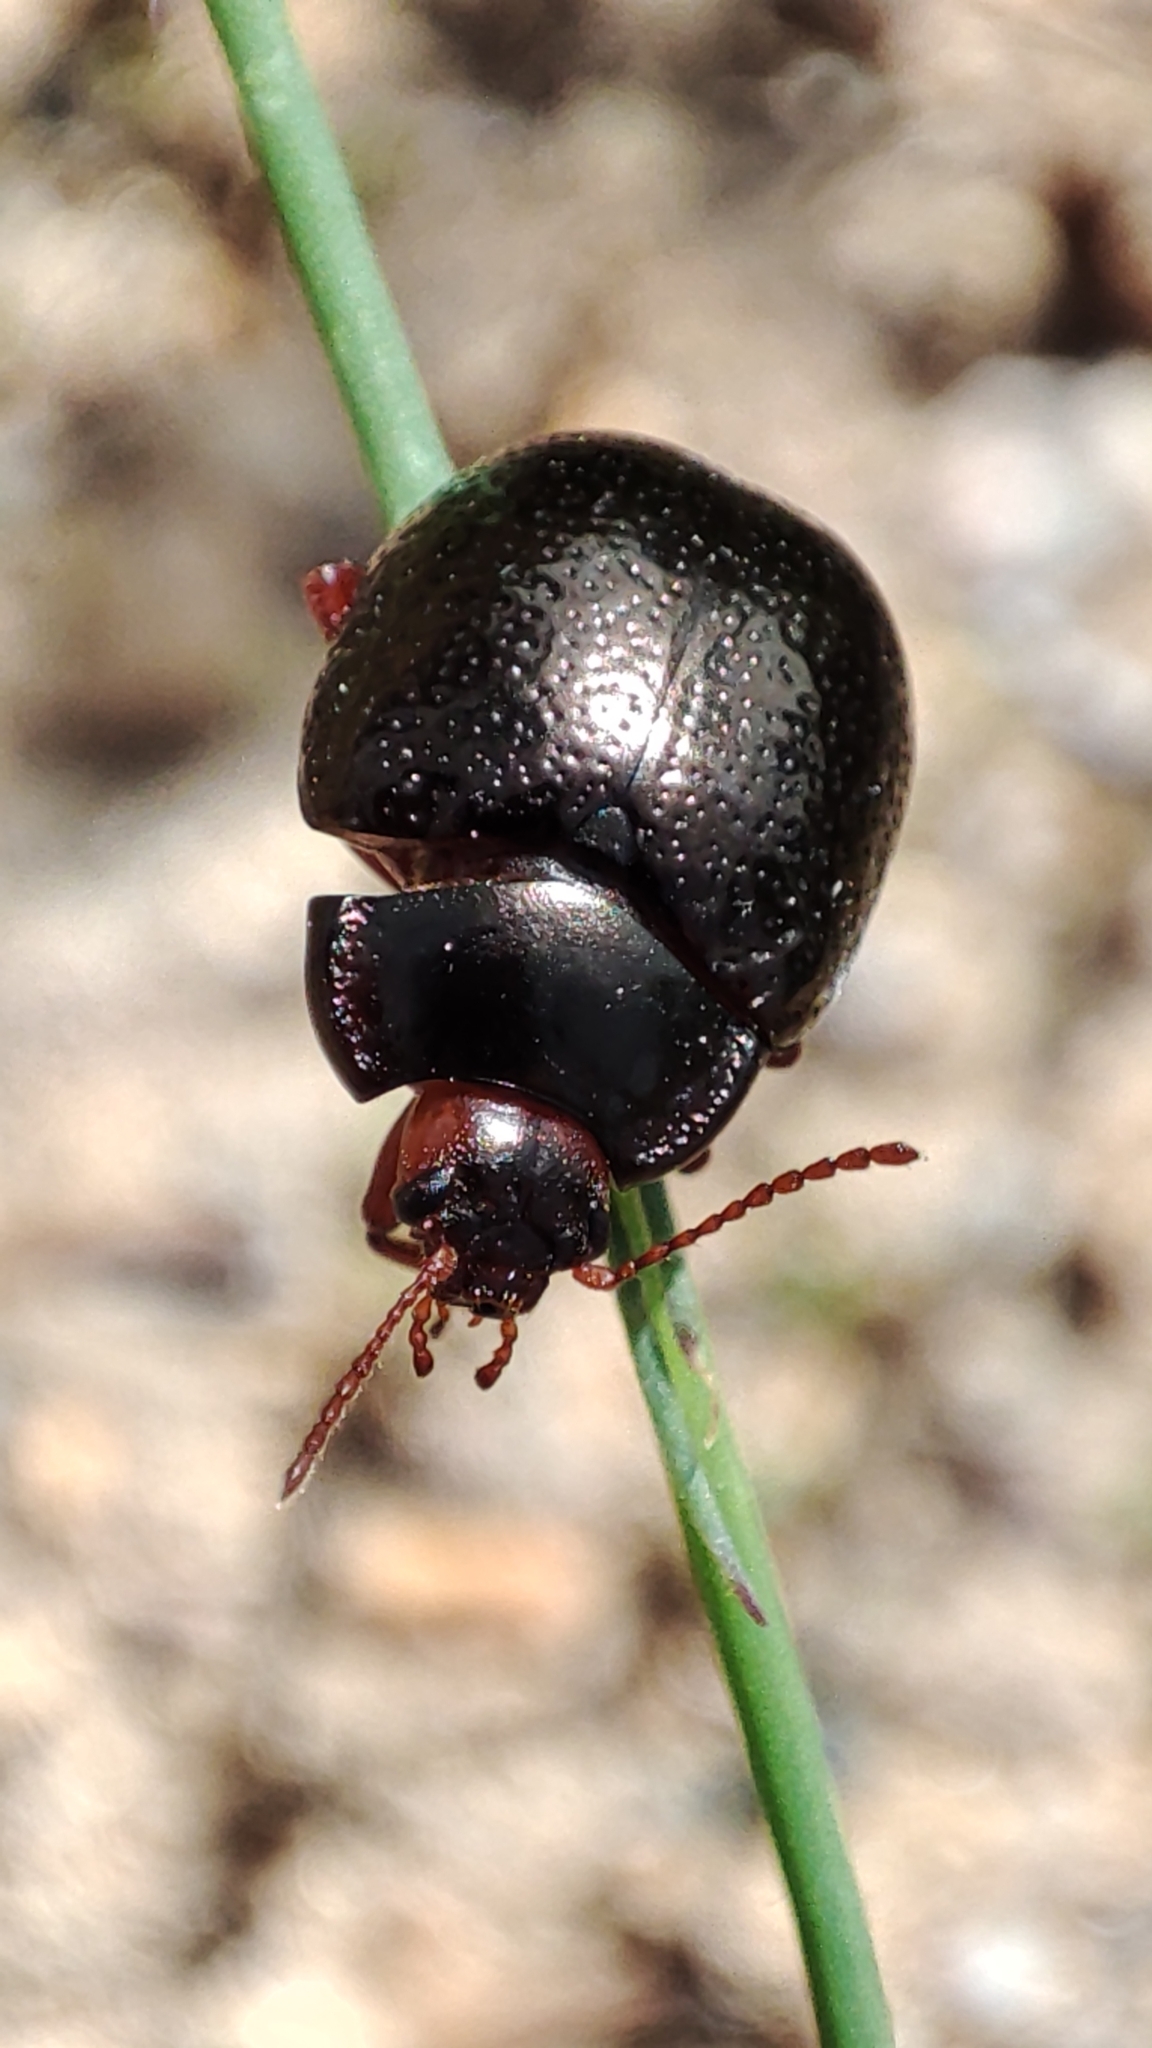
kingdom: Animalia
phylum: Arthropoda
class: Insecta
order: Coleoptera
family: Chrysomelidae
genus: Chrysolina
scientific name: Chrysolina bankii
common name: Leaf beetle
